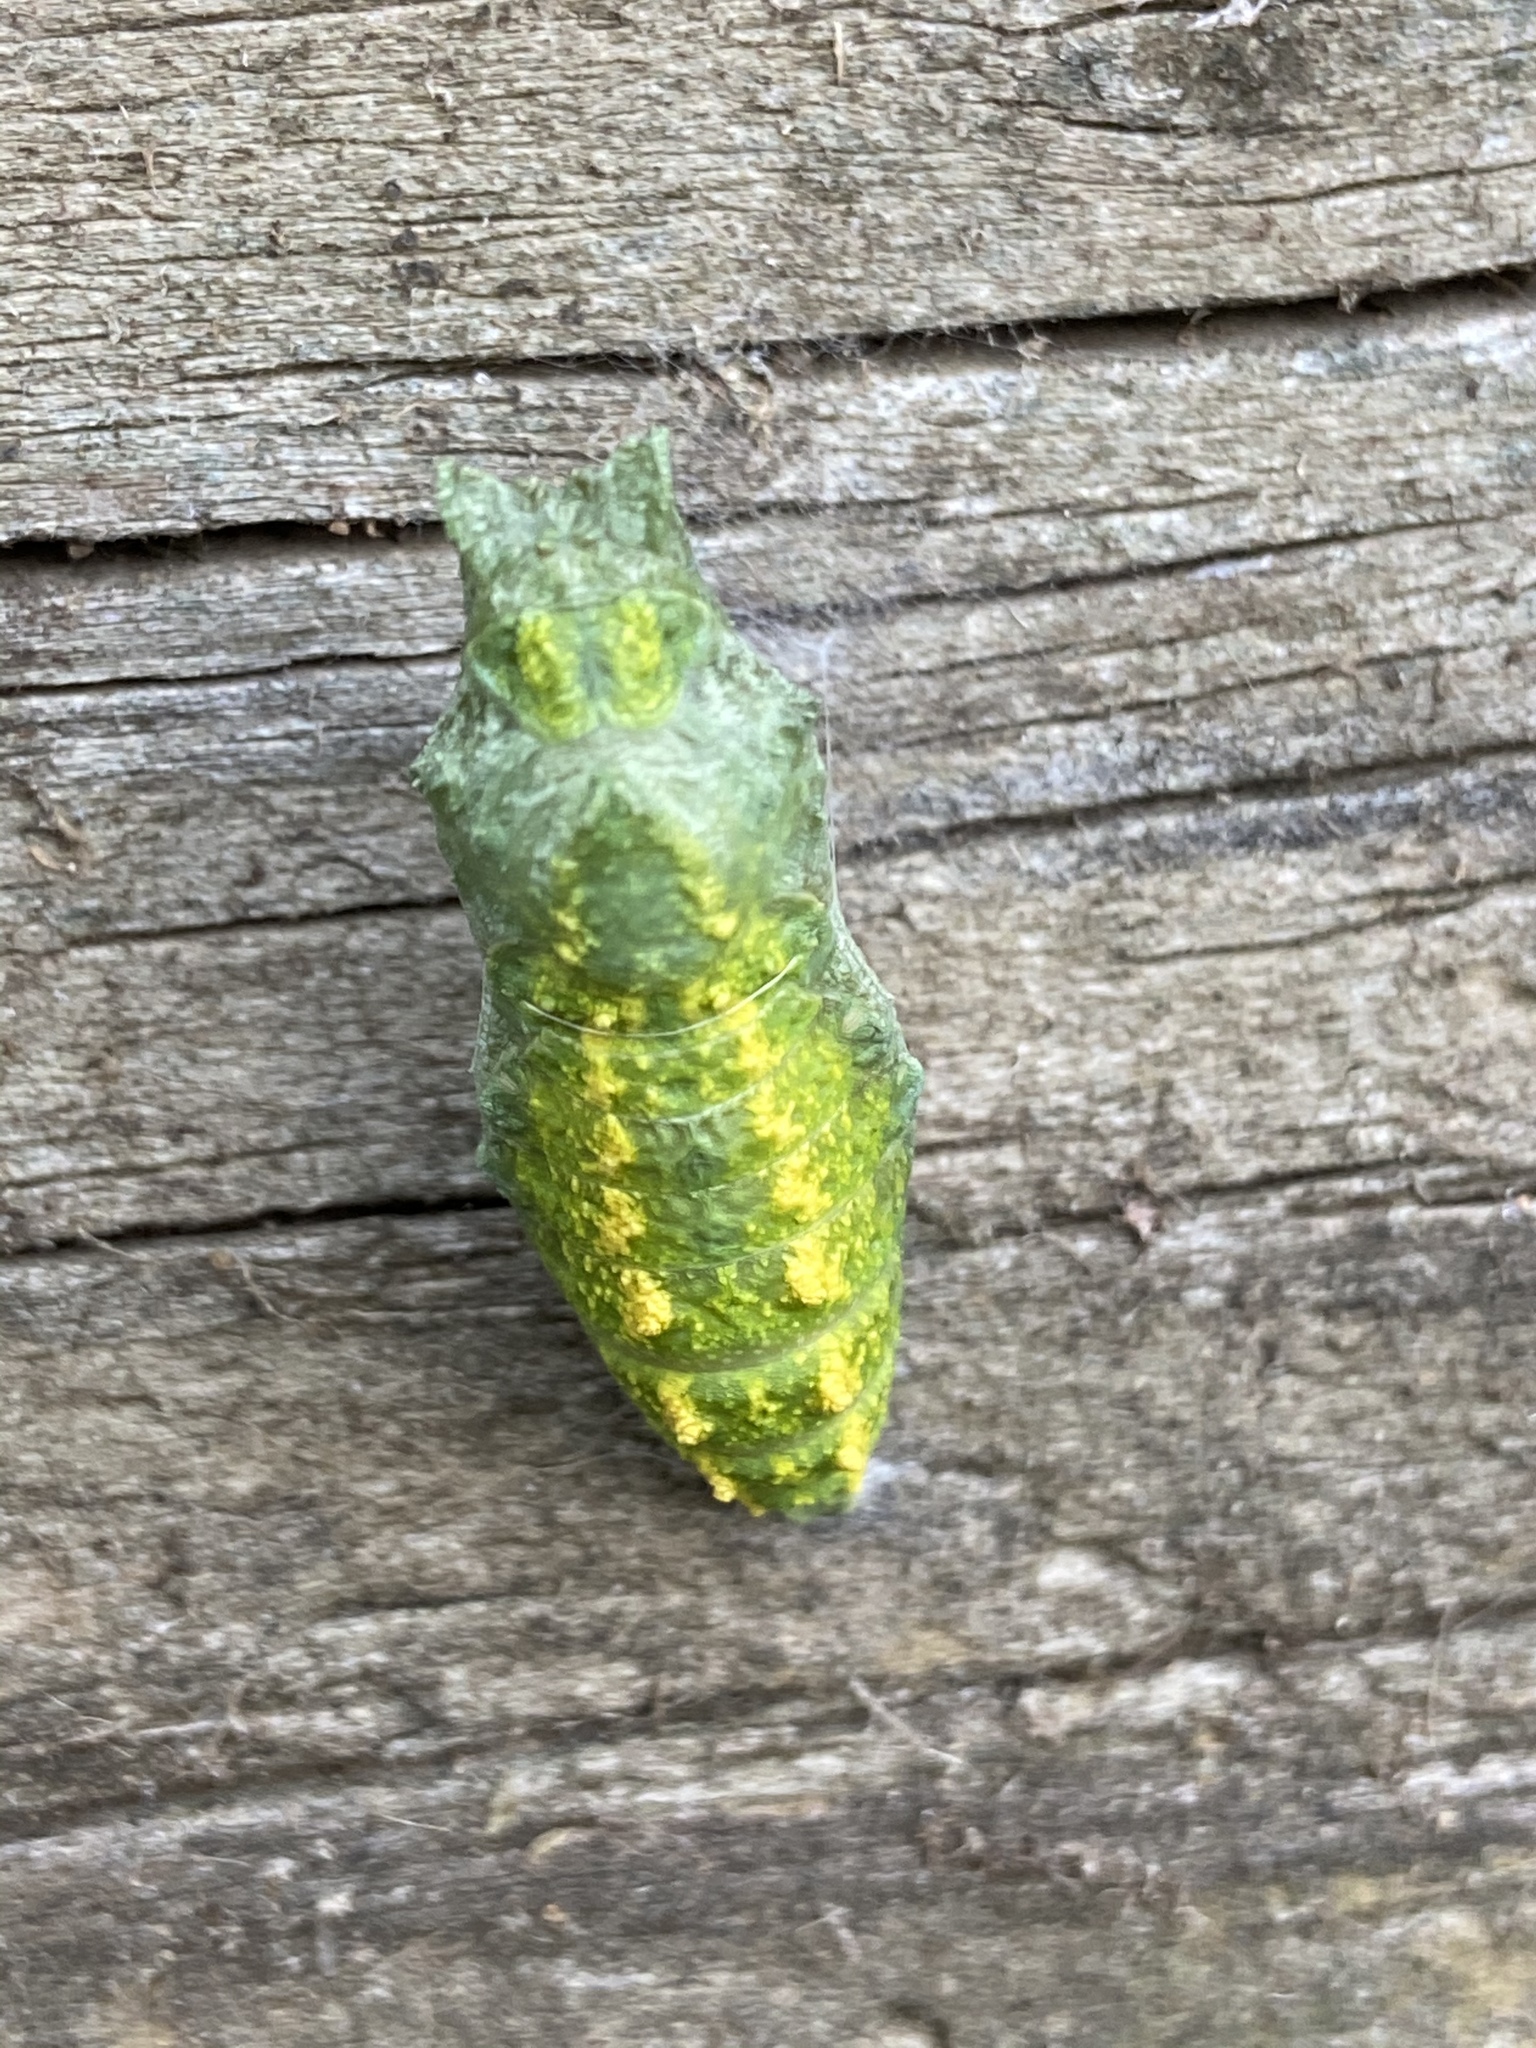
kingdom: Animalia
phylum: Arthropoda
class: Insecta
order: Lepidoptera
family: Papilionidae
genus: Papilio
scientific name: Papilio polyxenes
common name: Black swallowtail
